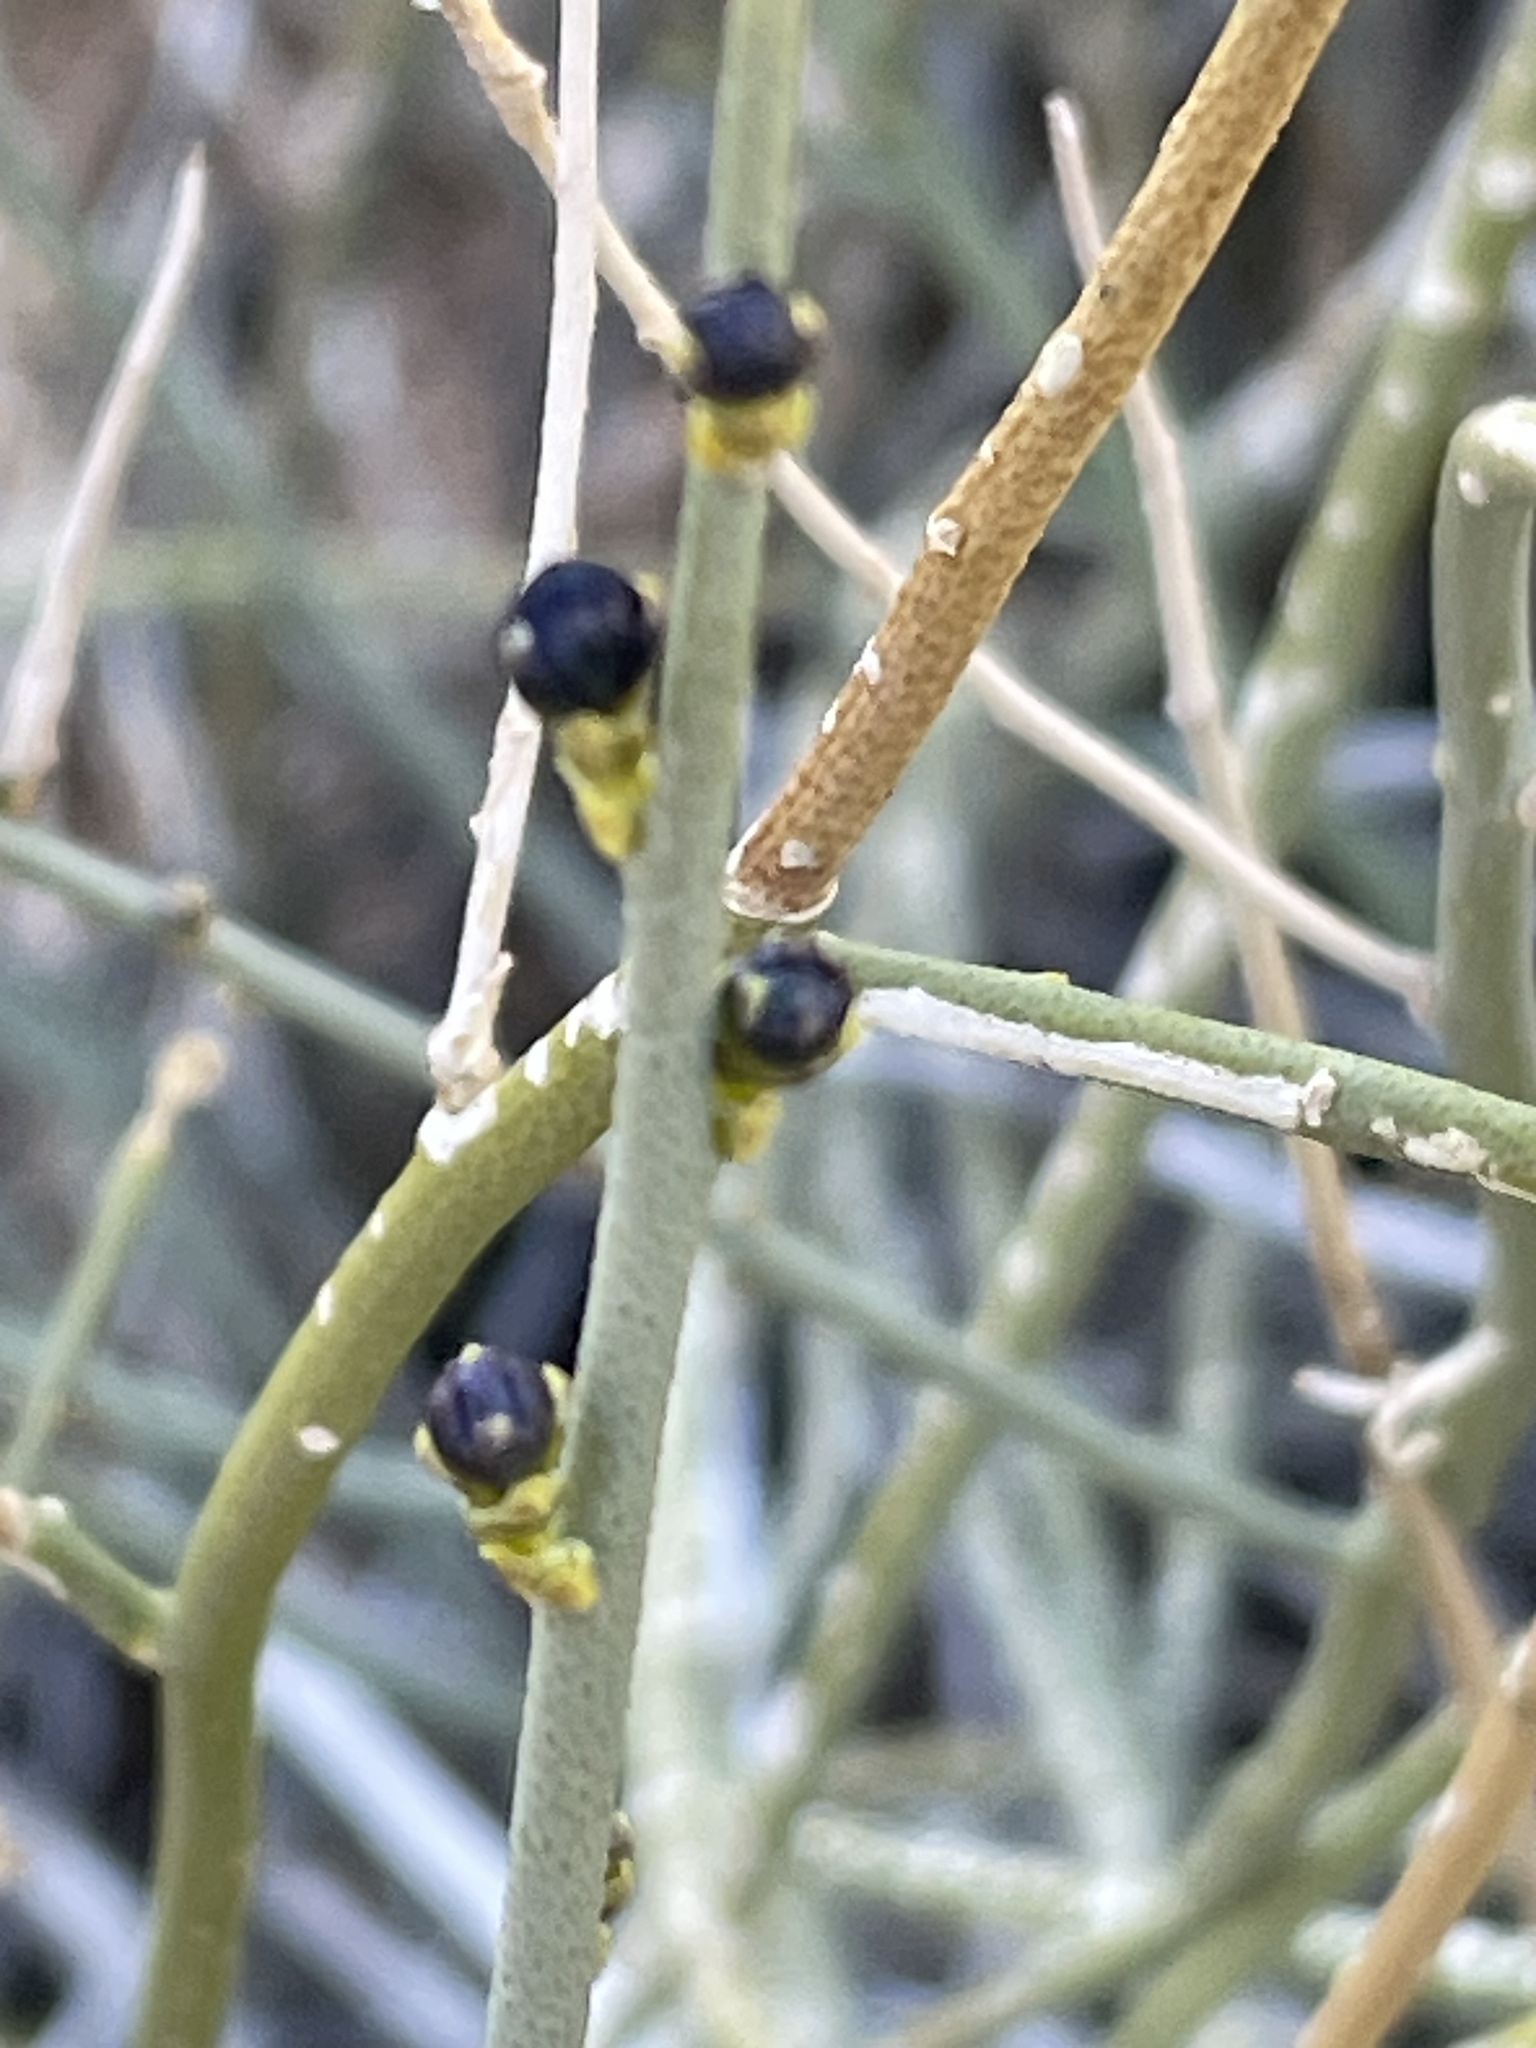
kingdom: Plantae
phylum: Tracheophyta
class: Magnoliopsida
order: Sapindales
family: Rutaceae
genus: Thamnosma
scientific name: Thamnosma montana
